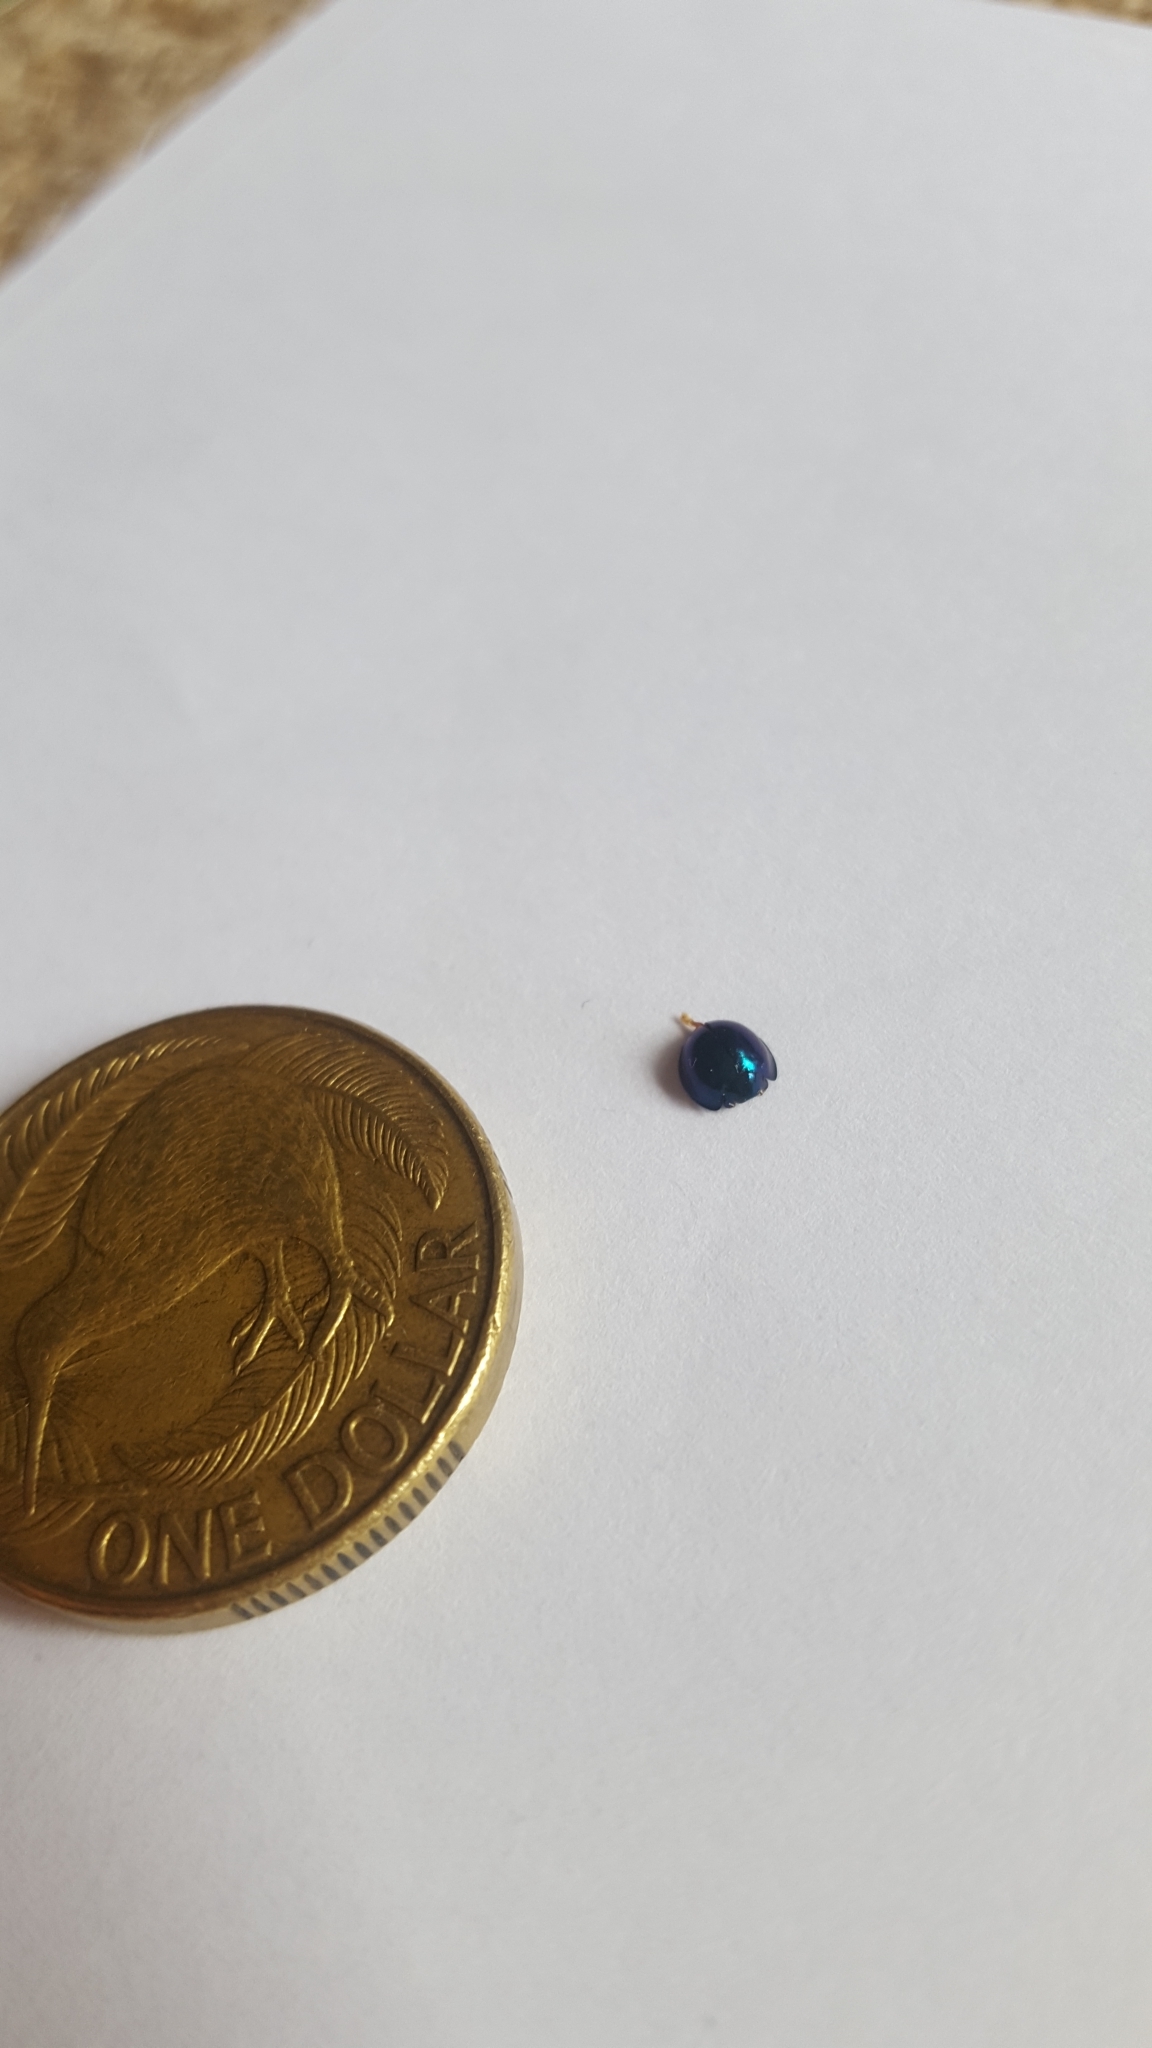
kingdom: Animalia
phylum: Arthropoda
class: Insecta
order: Coleoptera
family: Coccinellidae
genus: Halmus
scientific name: Halmus chalybeus
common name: Steel blue ladybird beetle
